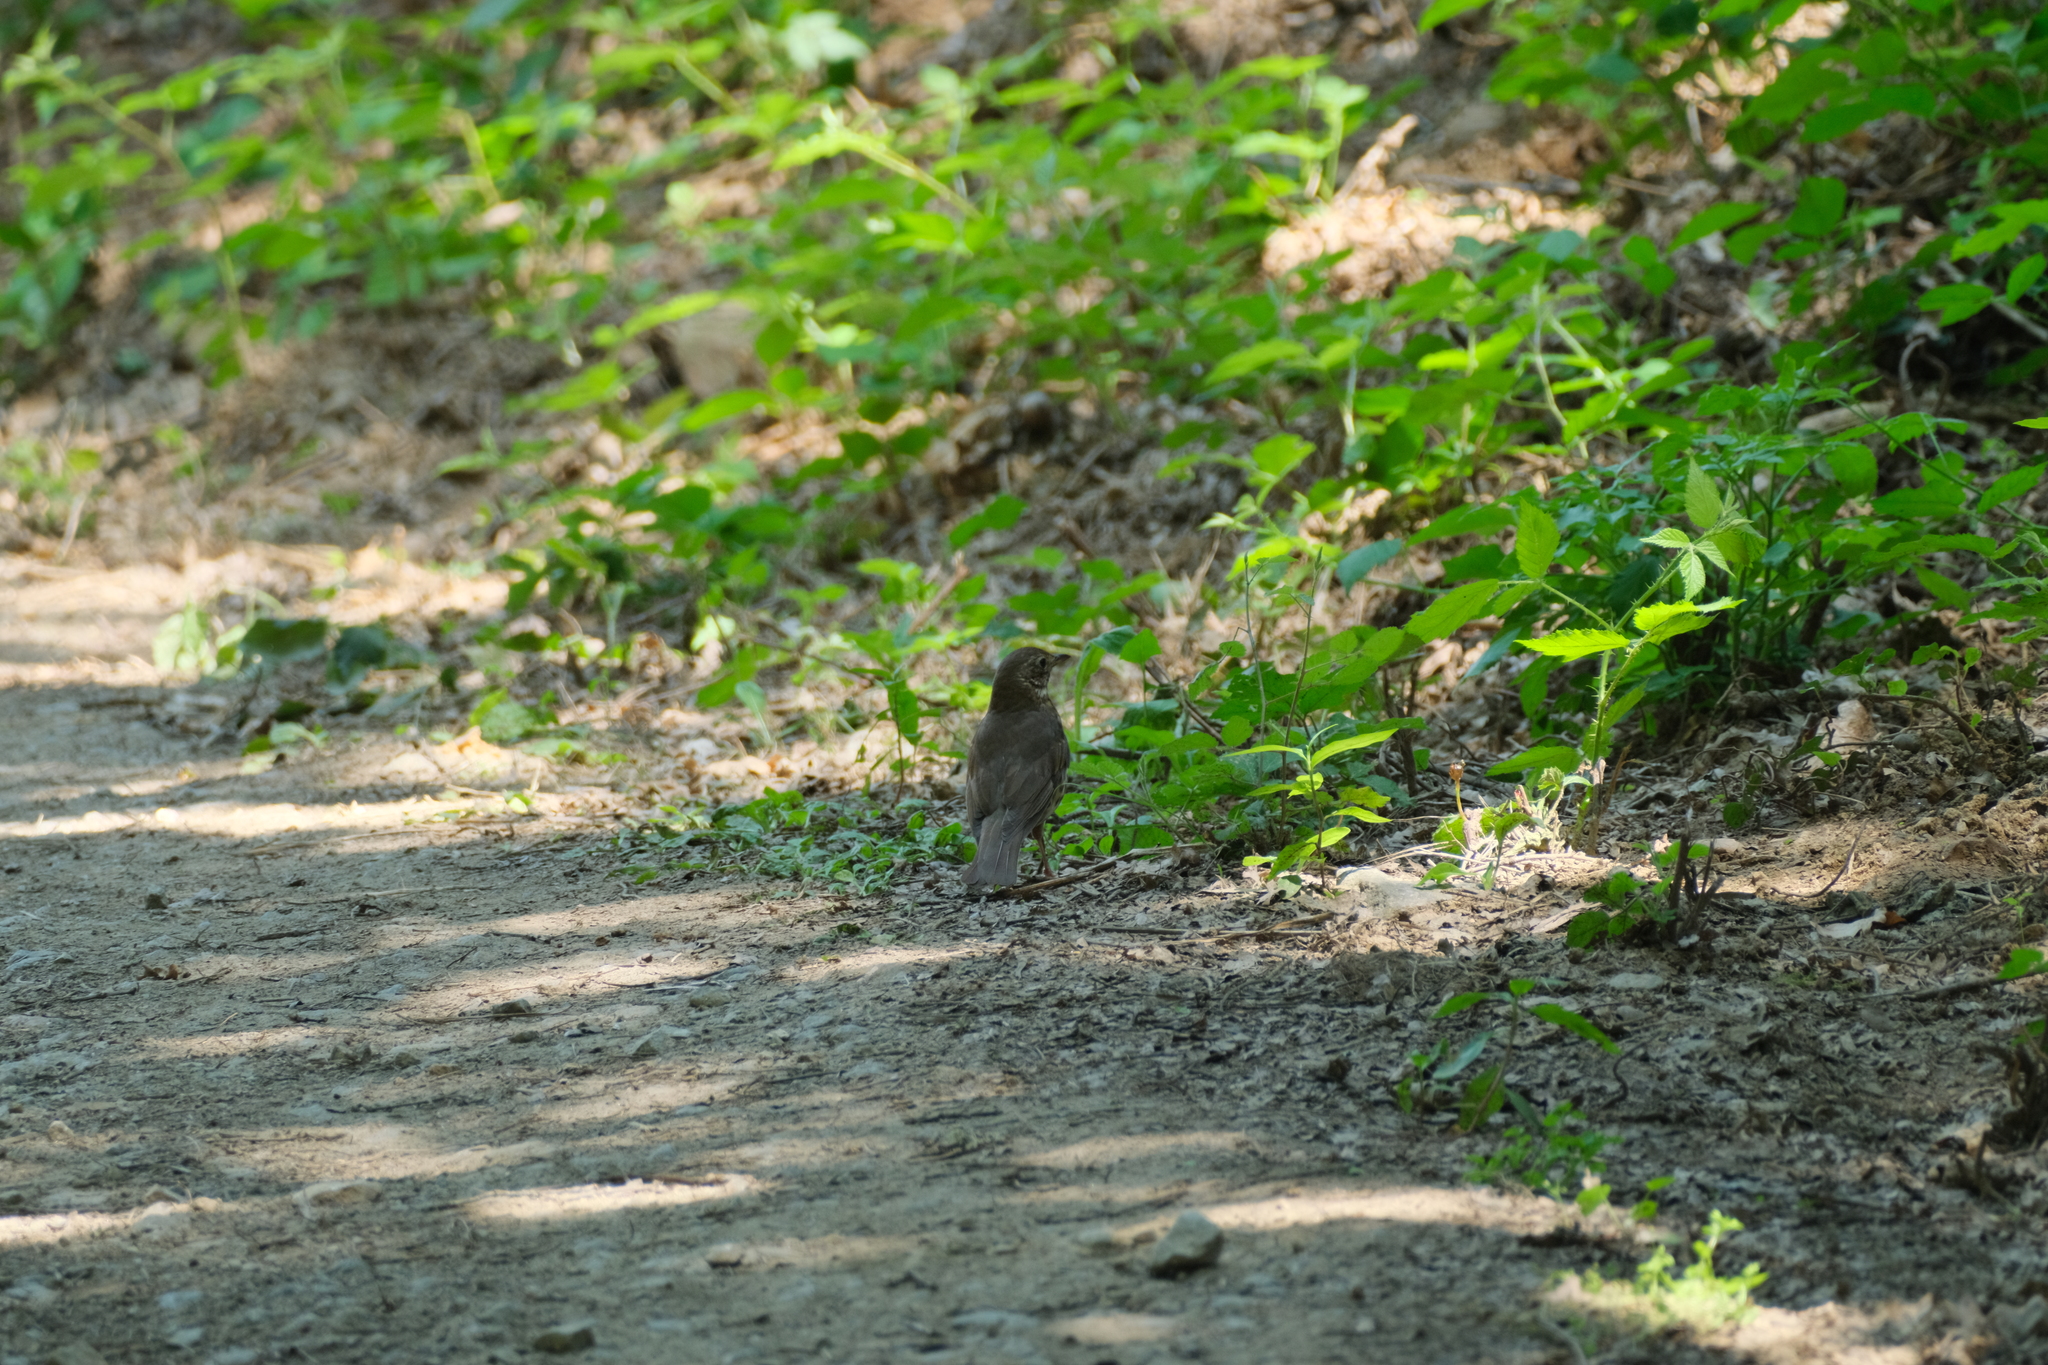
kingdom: Animalia
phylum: Chordata
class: Aves
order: Passeriformes
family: Turdidae
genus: Turdus
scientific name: Turdus philomelos
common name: Song thrush
